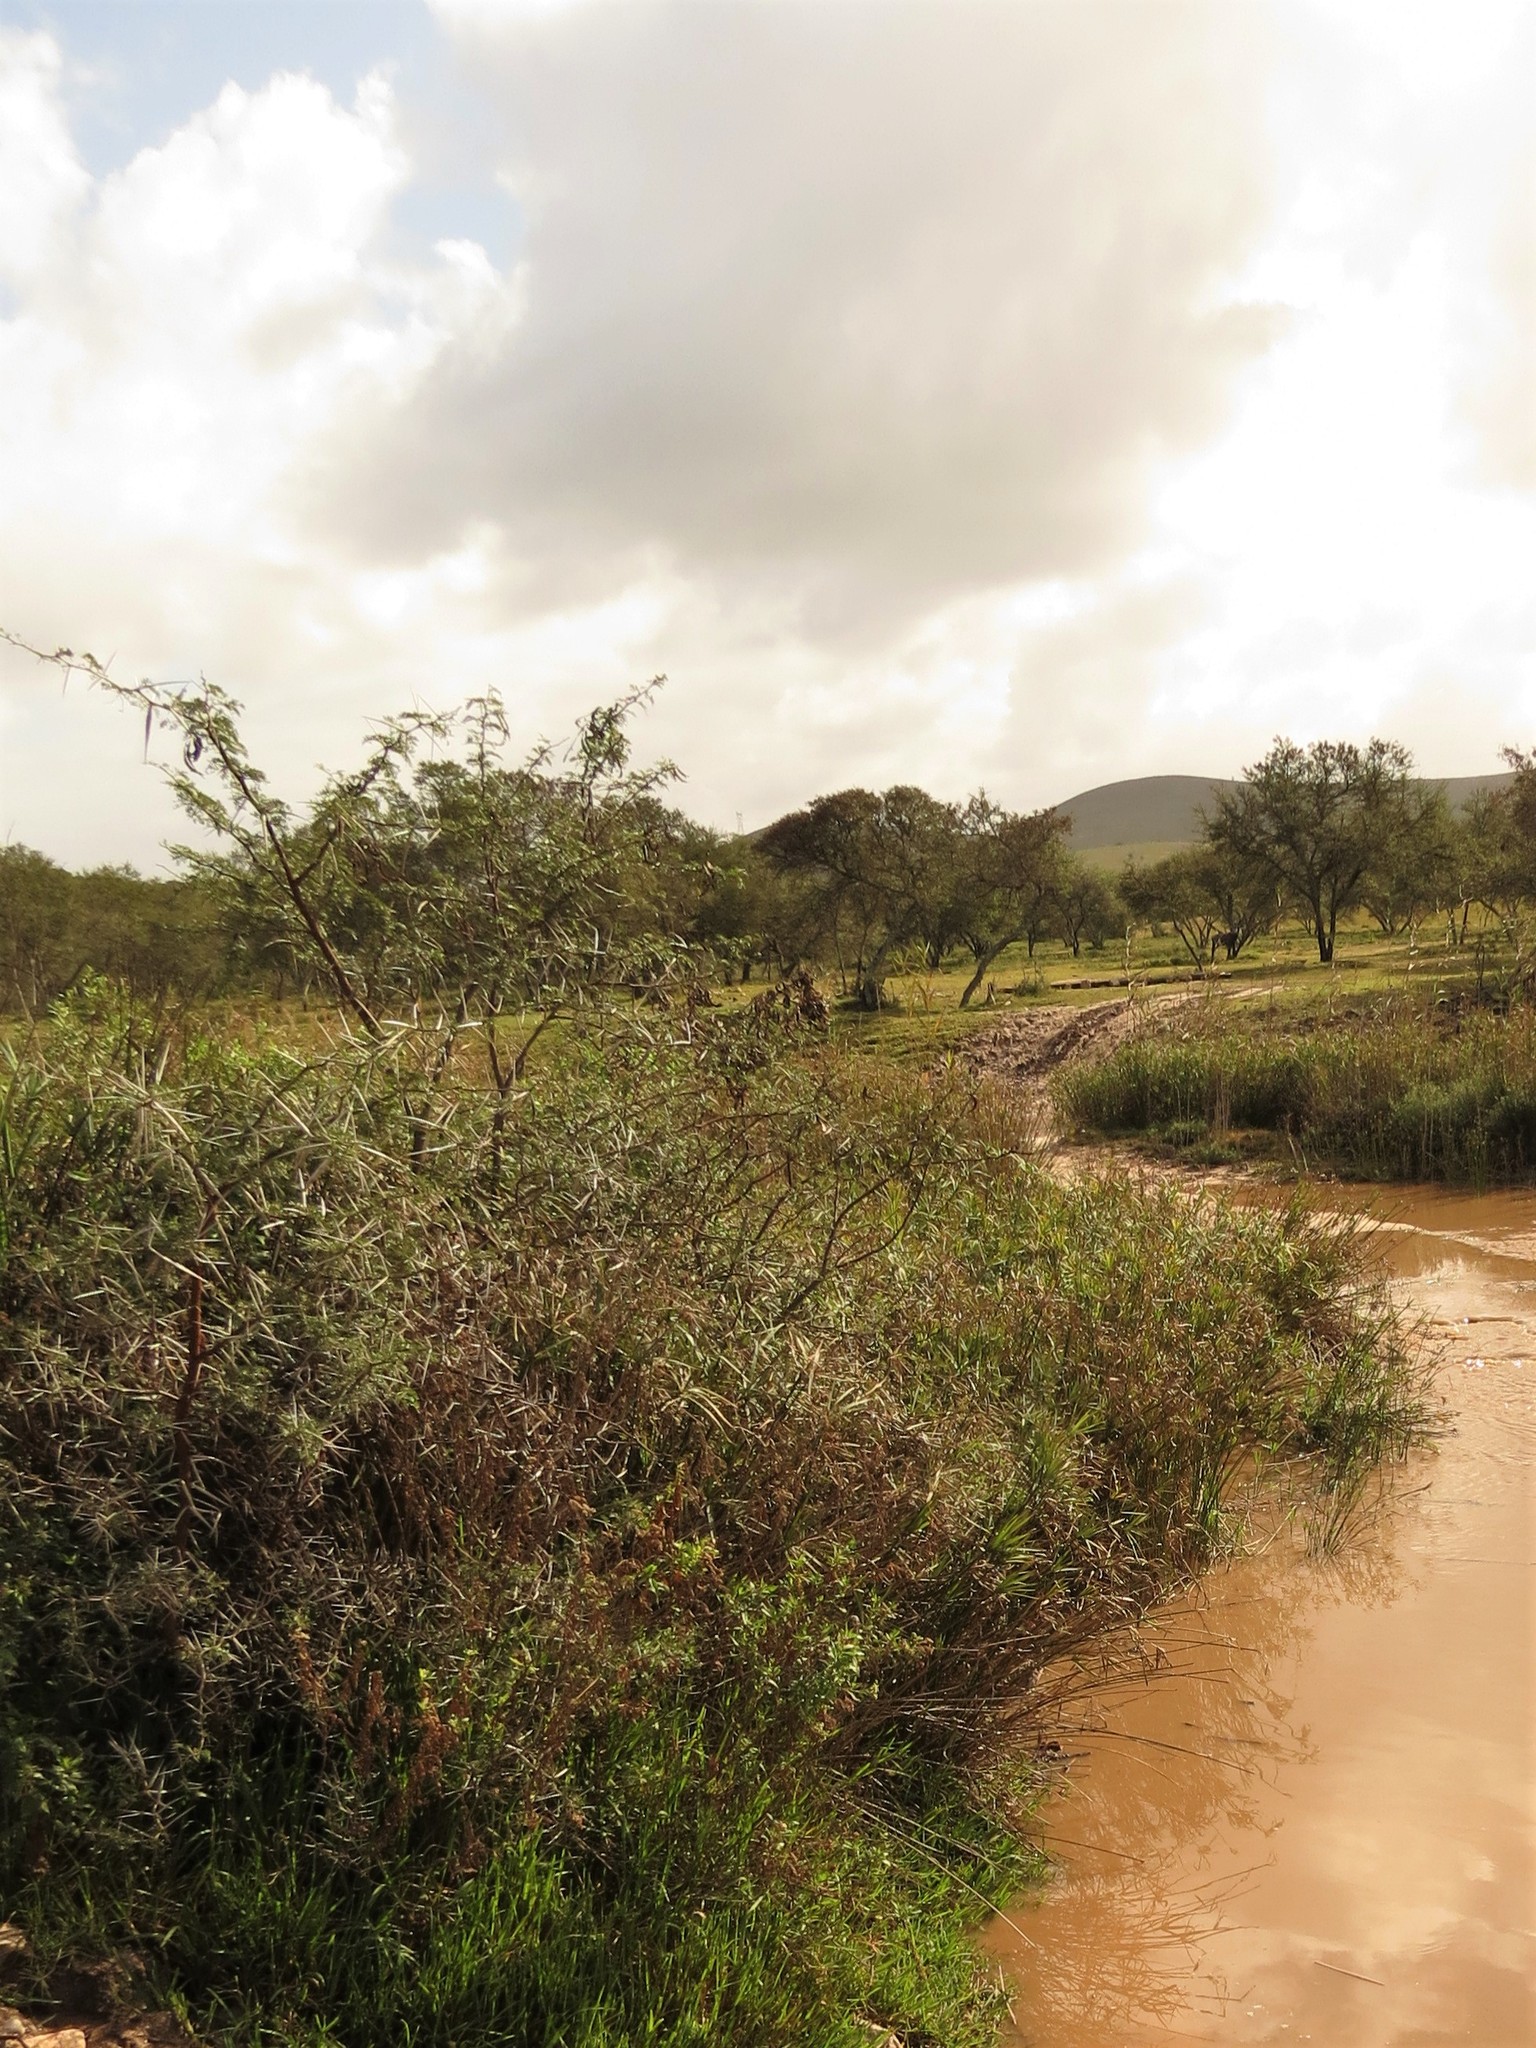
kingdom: Plantae
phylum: Tracheophyta
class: Magnoliopsida
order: Fabales
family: Fabaceae
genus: Vachellia
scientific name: Vachellia karroo
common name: Sweet thorn
